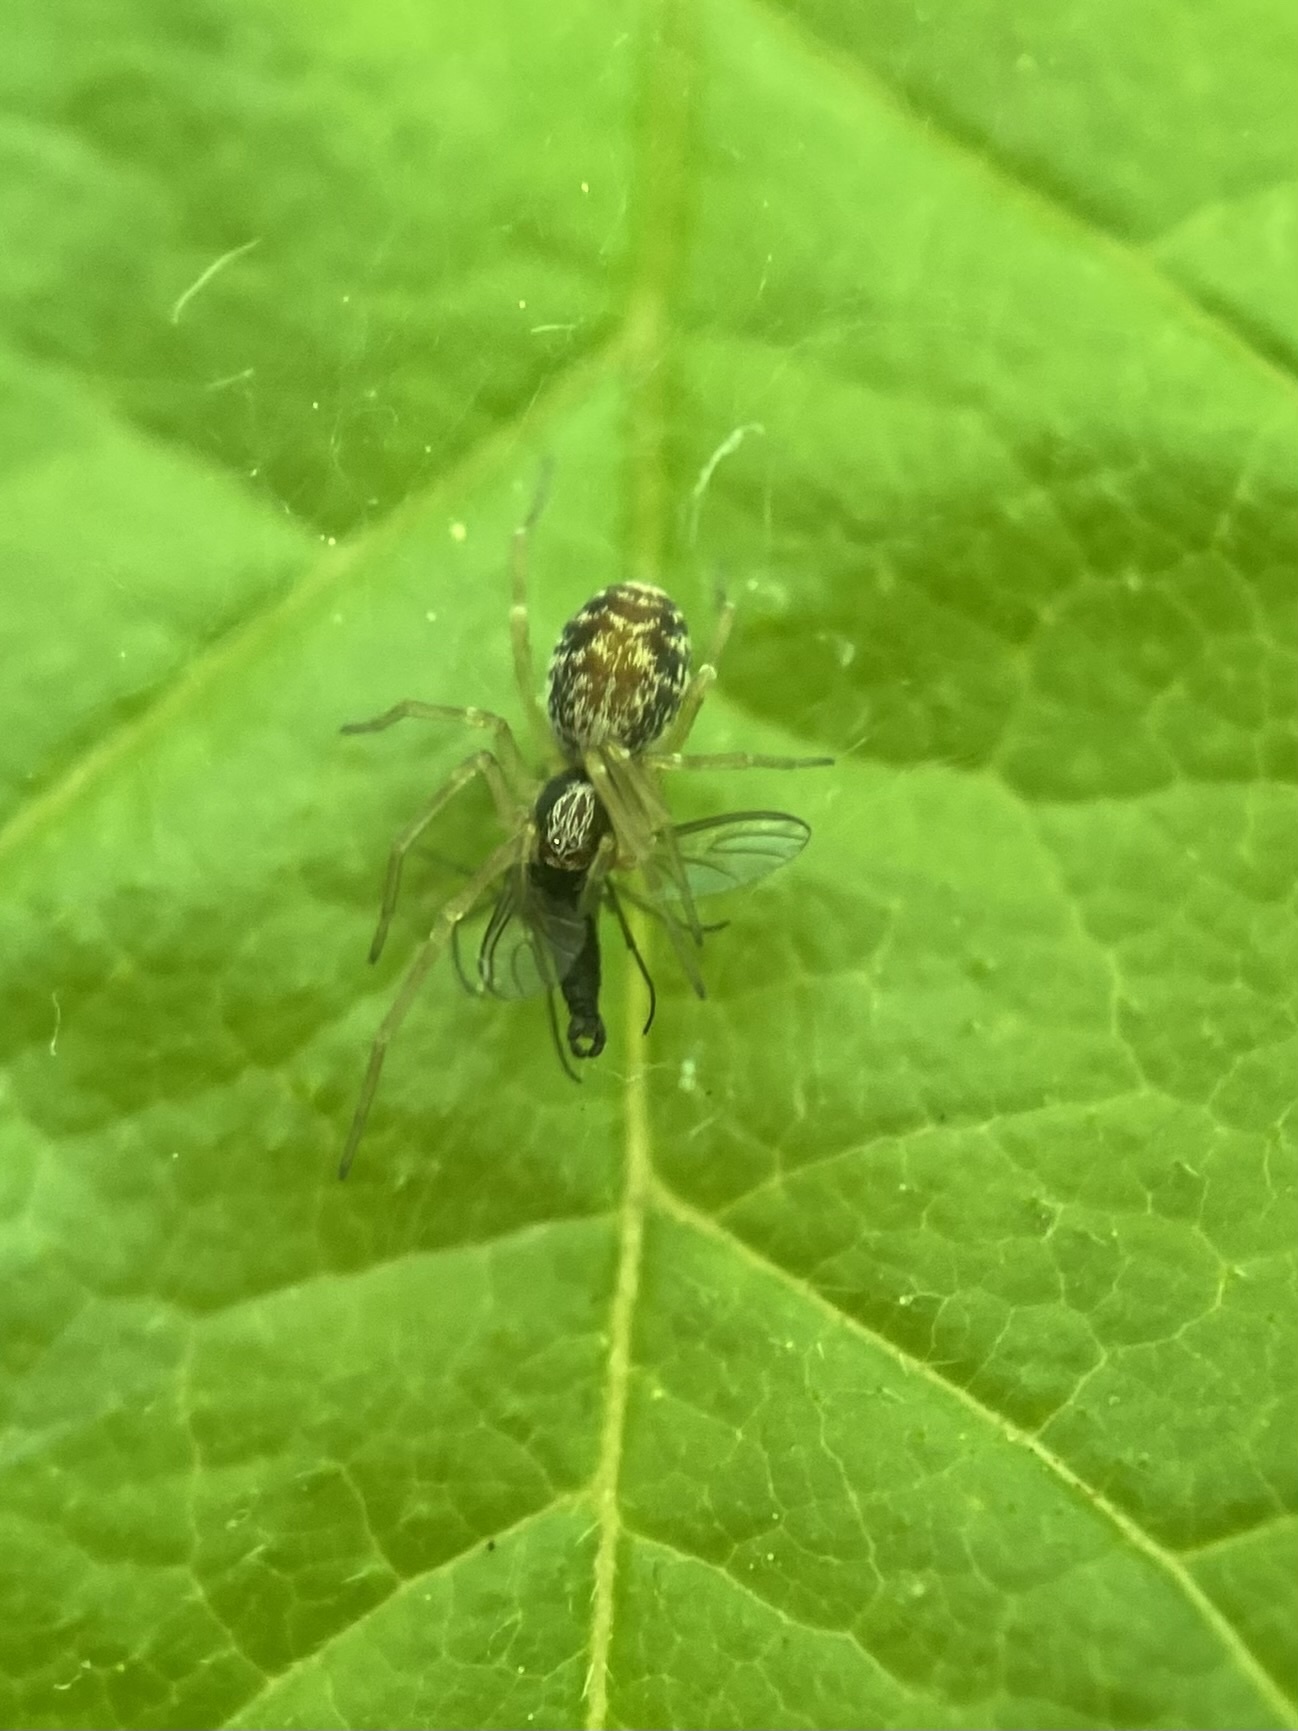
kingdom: Animalia
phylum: Arthropoda
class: Arachnida
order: Araneae
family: Dictynidae
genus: Emblyna
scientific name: Emblyna sublata
